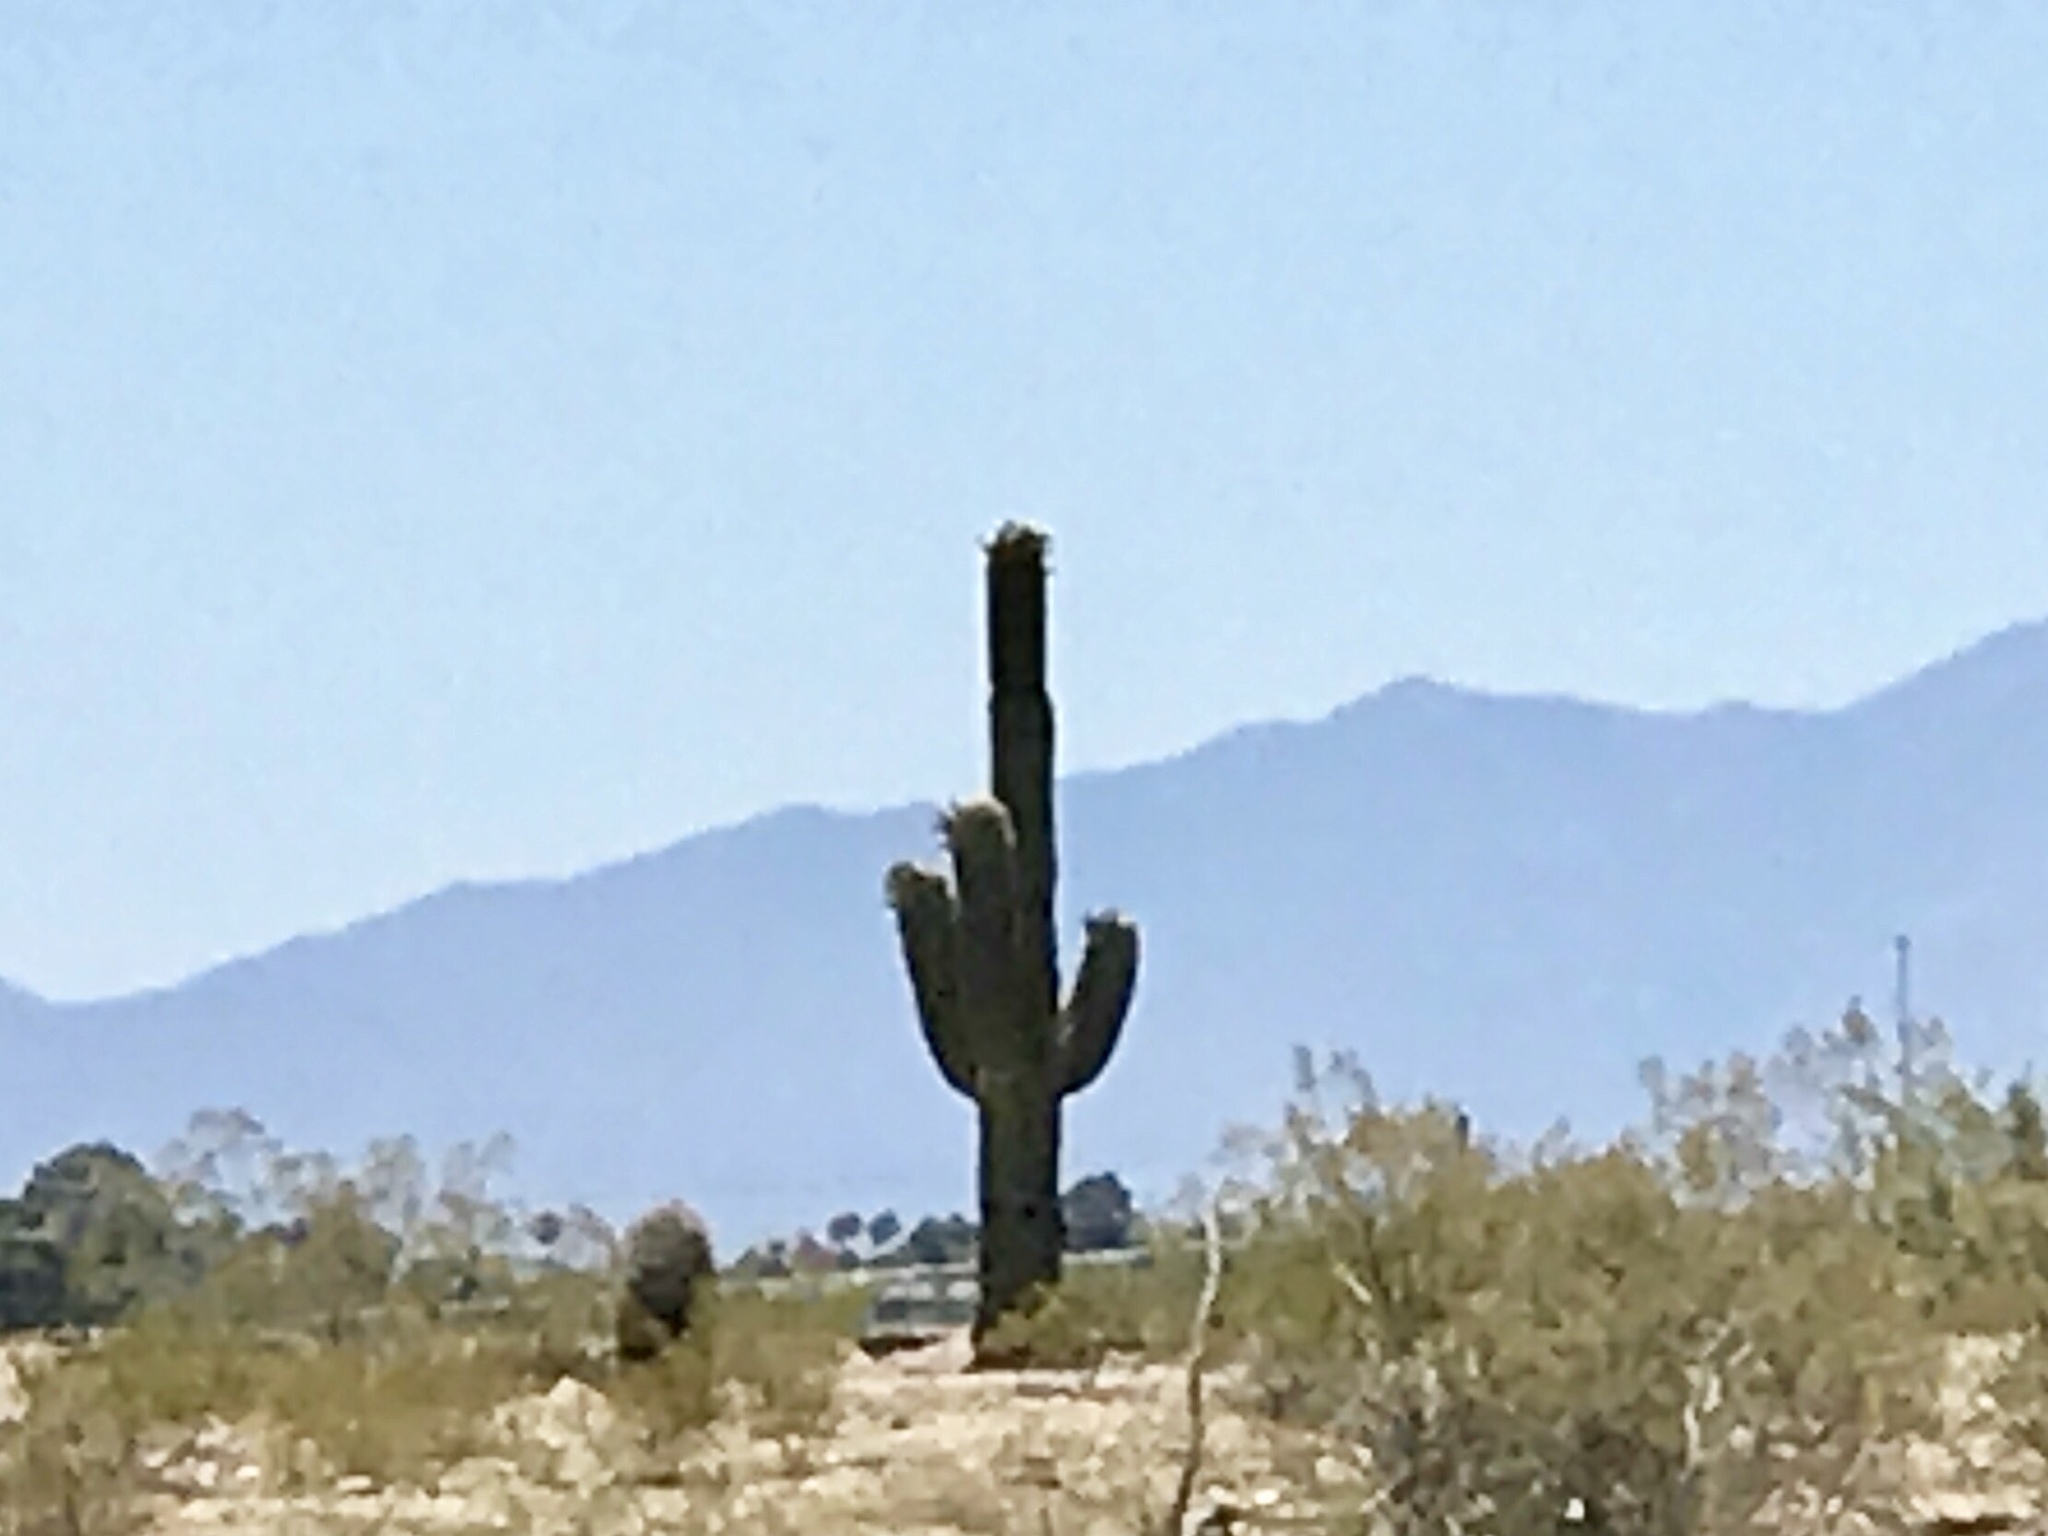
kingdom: Plantae
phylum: Tracheophyta
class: Magnoliopsida
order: Caryophyllales
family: Cactaceae
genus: Carnegiea
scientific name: Carnegiea gigantea
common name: Saguaro
